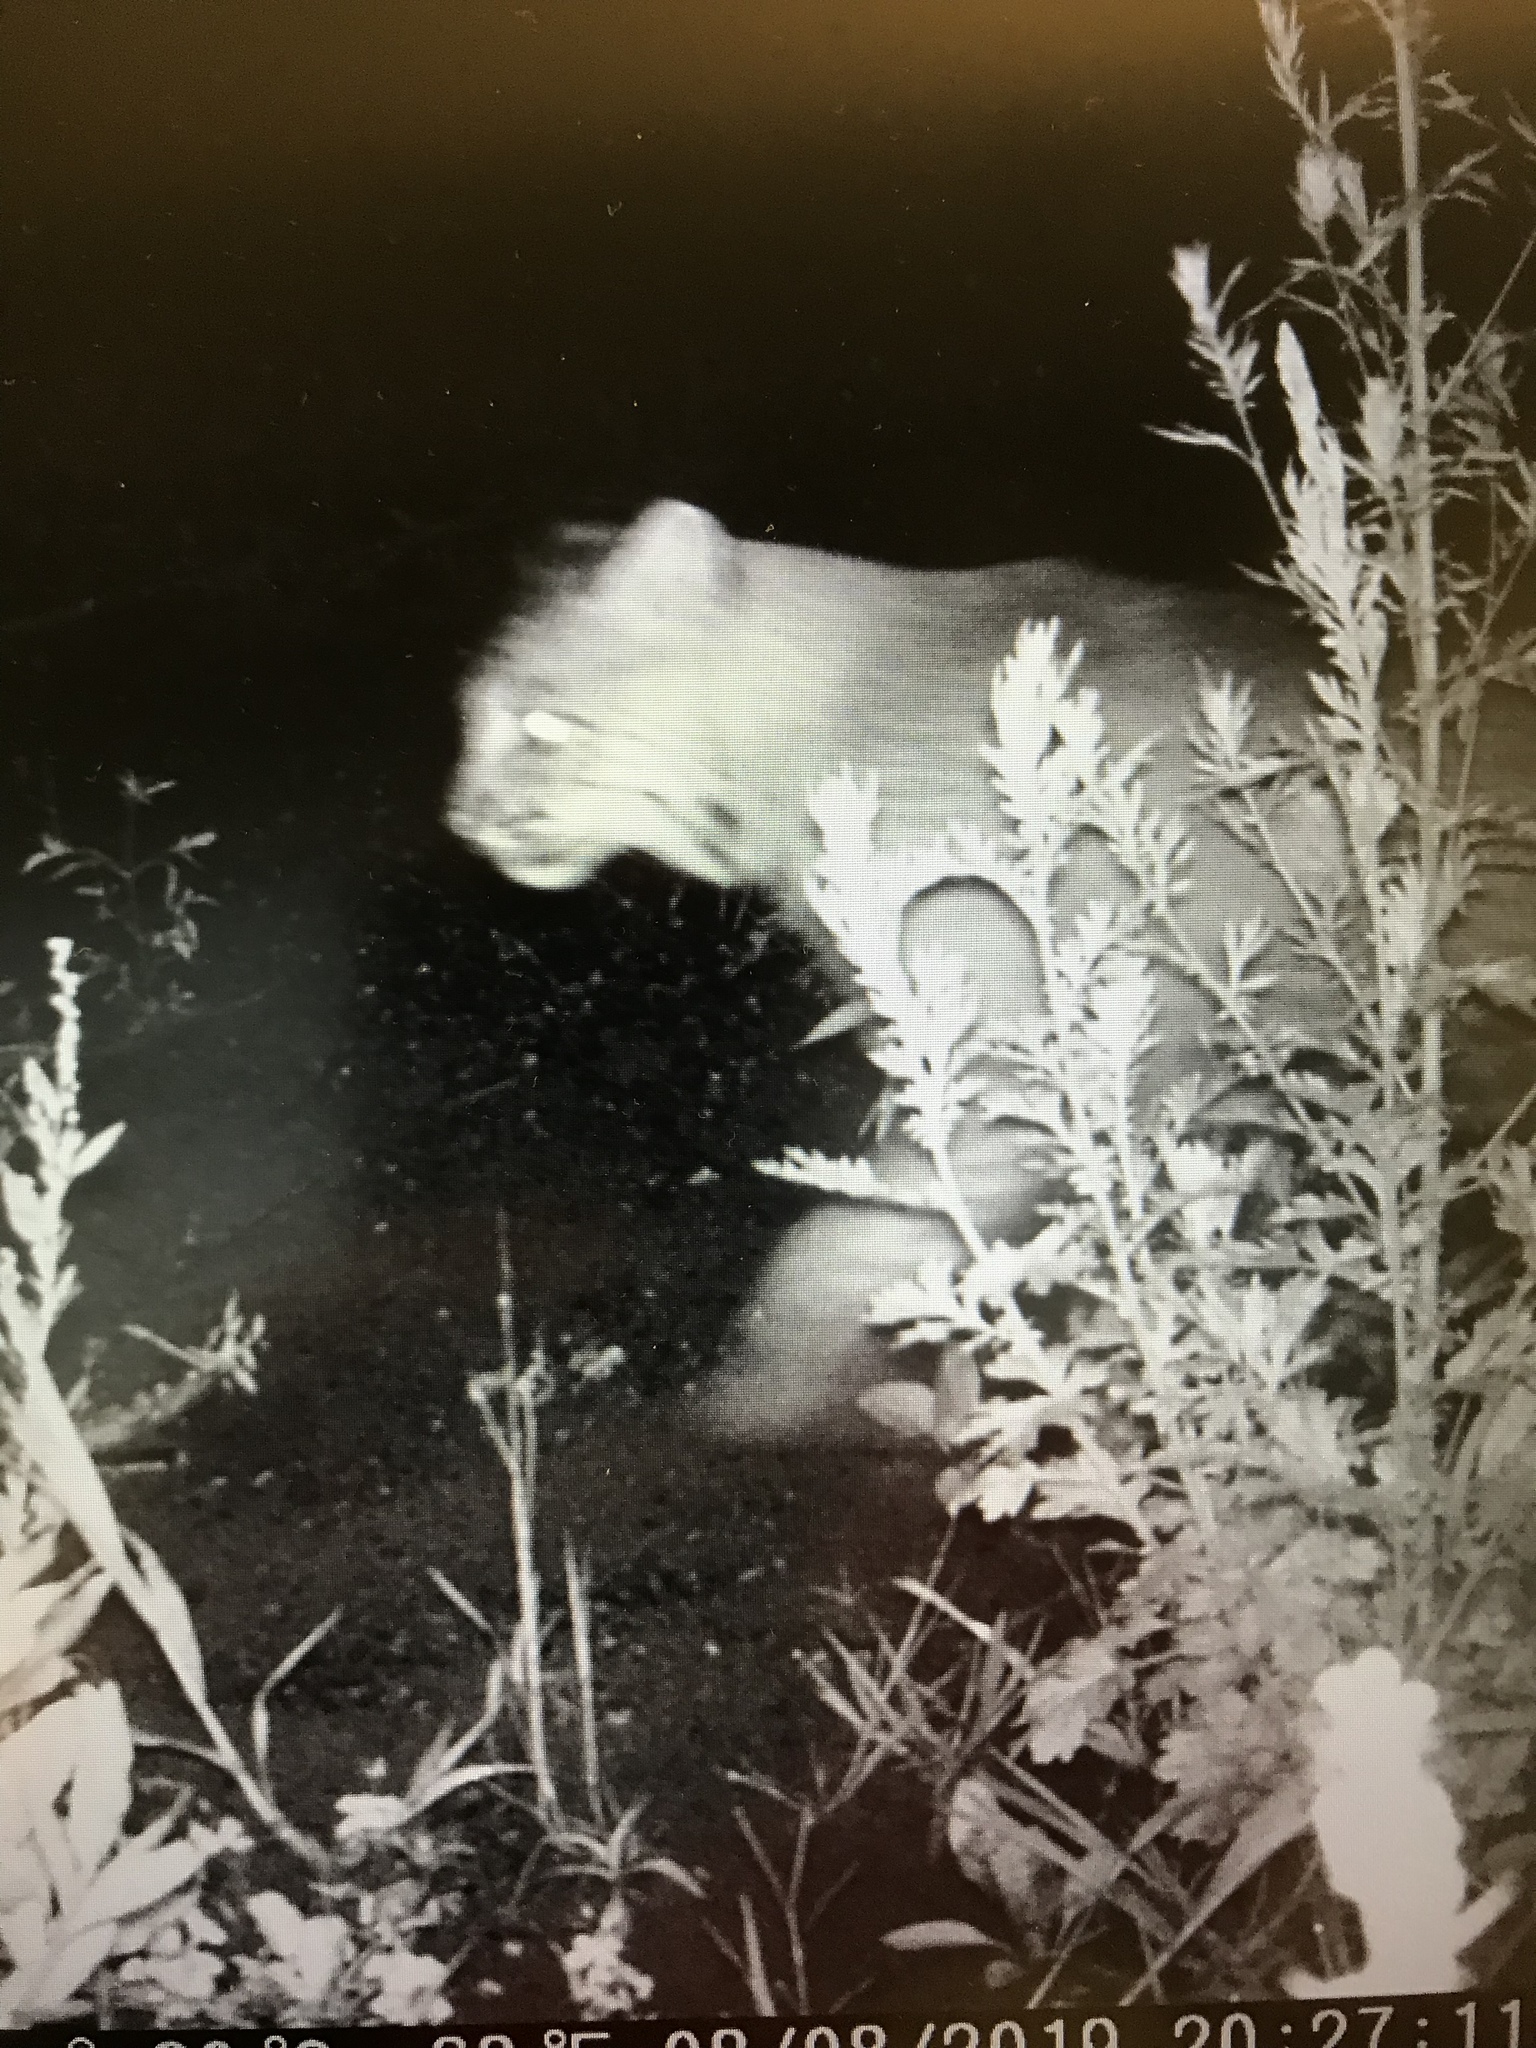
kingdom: Animalia
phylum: Chordata
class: Mammalia
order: Carnivora
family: Felidae
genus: Lynx
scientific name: Lynx rufus
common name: Bobcat
